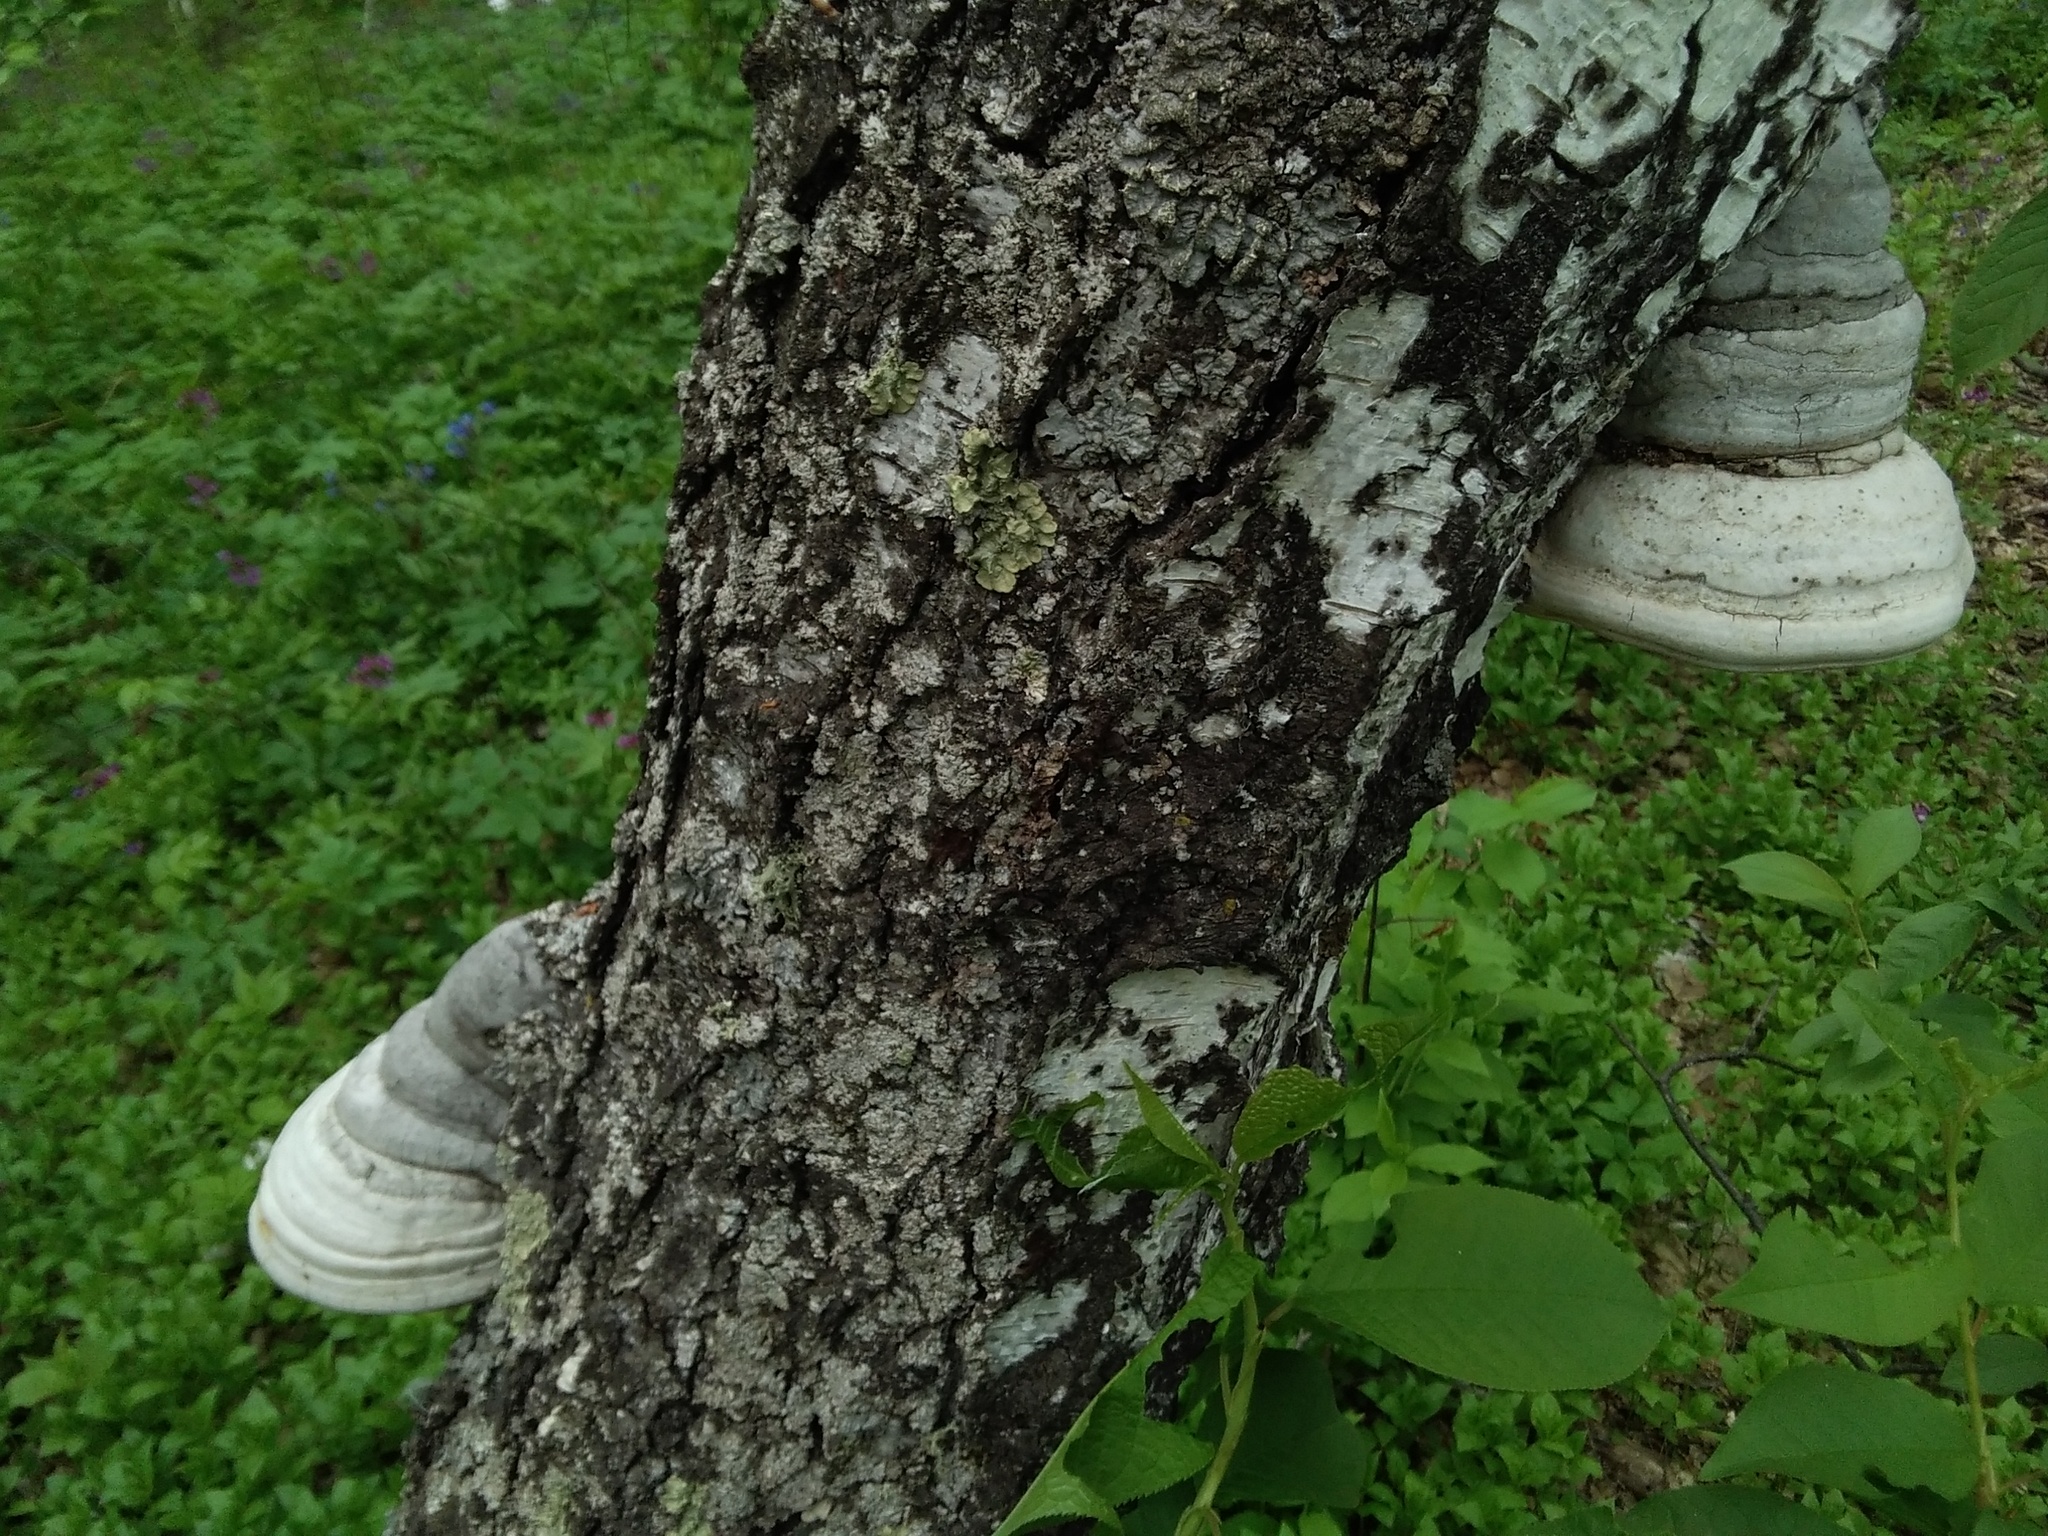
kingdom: Fungi
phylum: Basidiomycota
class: Agaricomycetes
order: Polyporales
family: Polyporaceae
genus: Fomes
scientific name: Fomes fomentarius
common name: Hoof fungus
